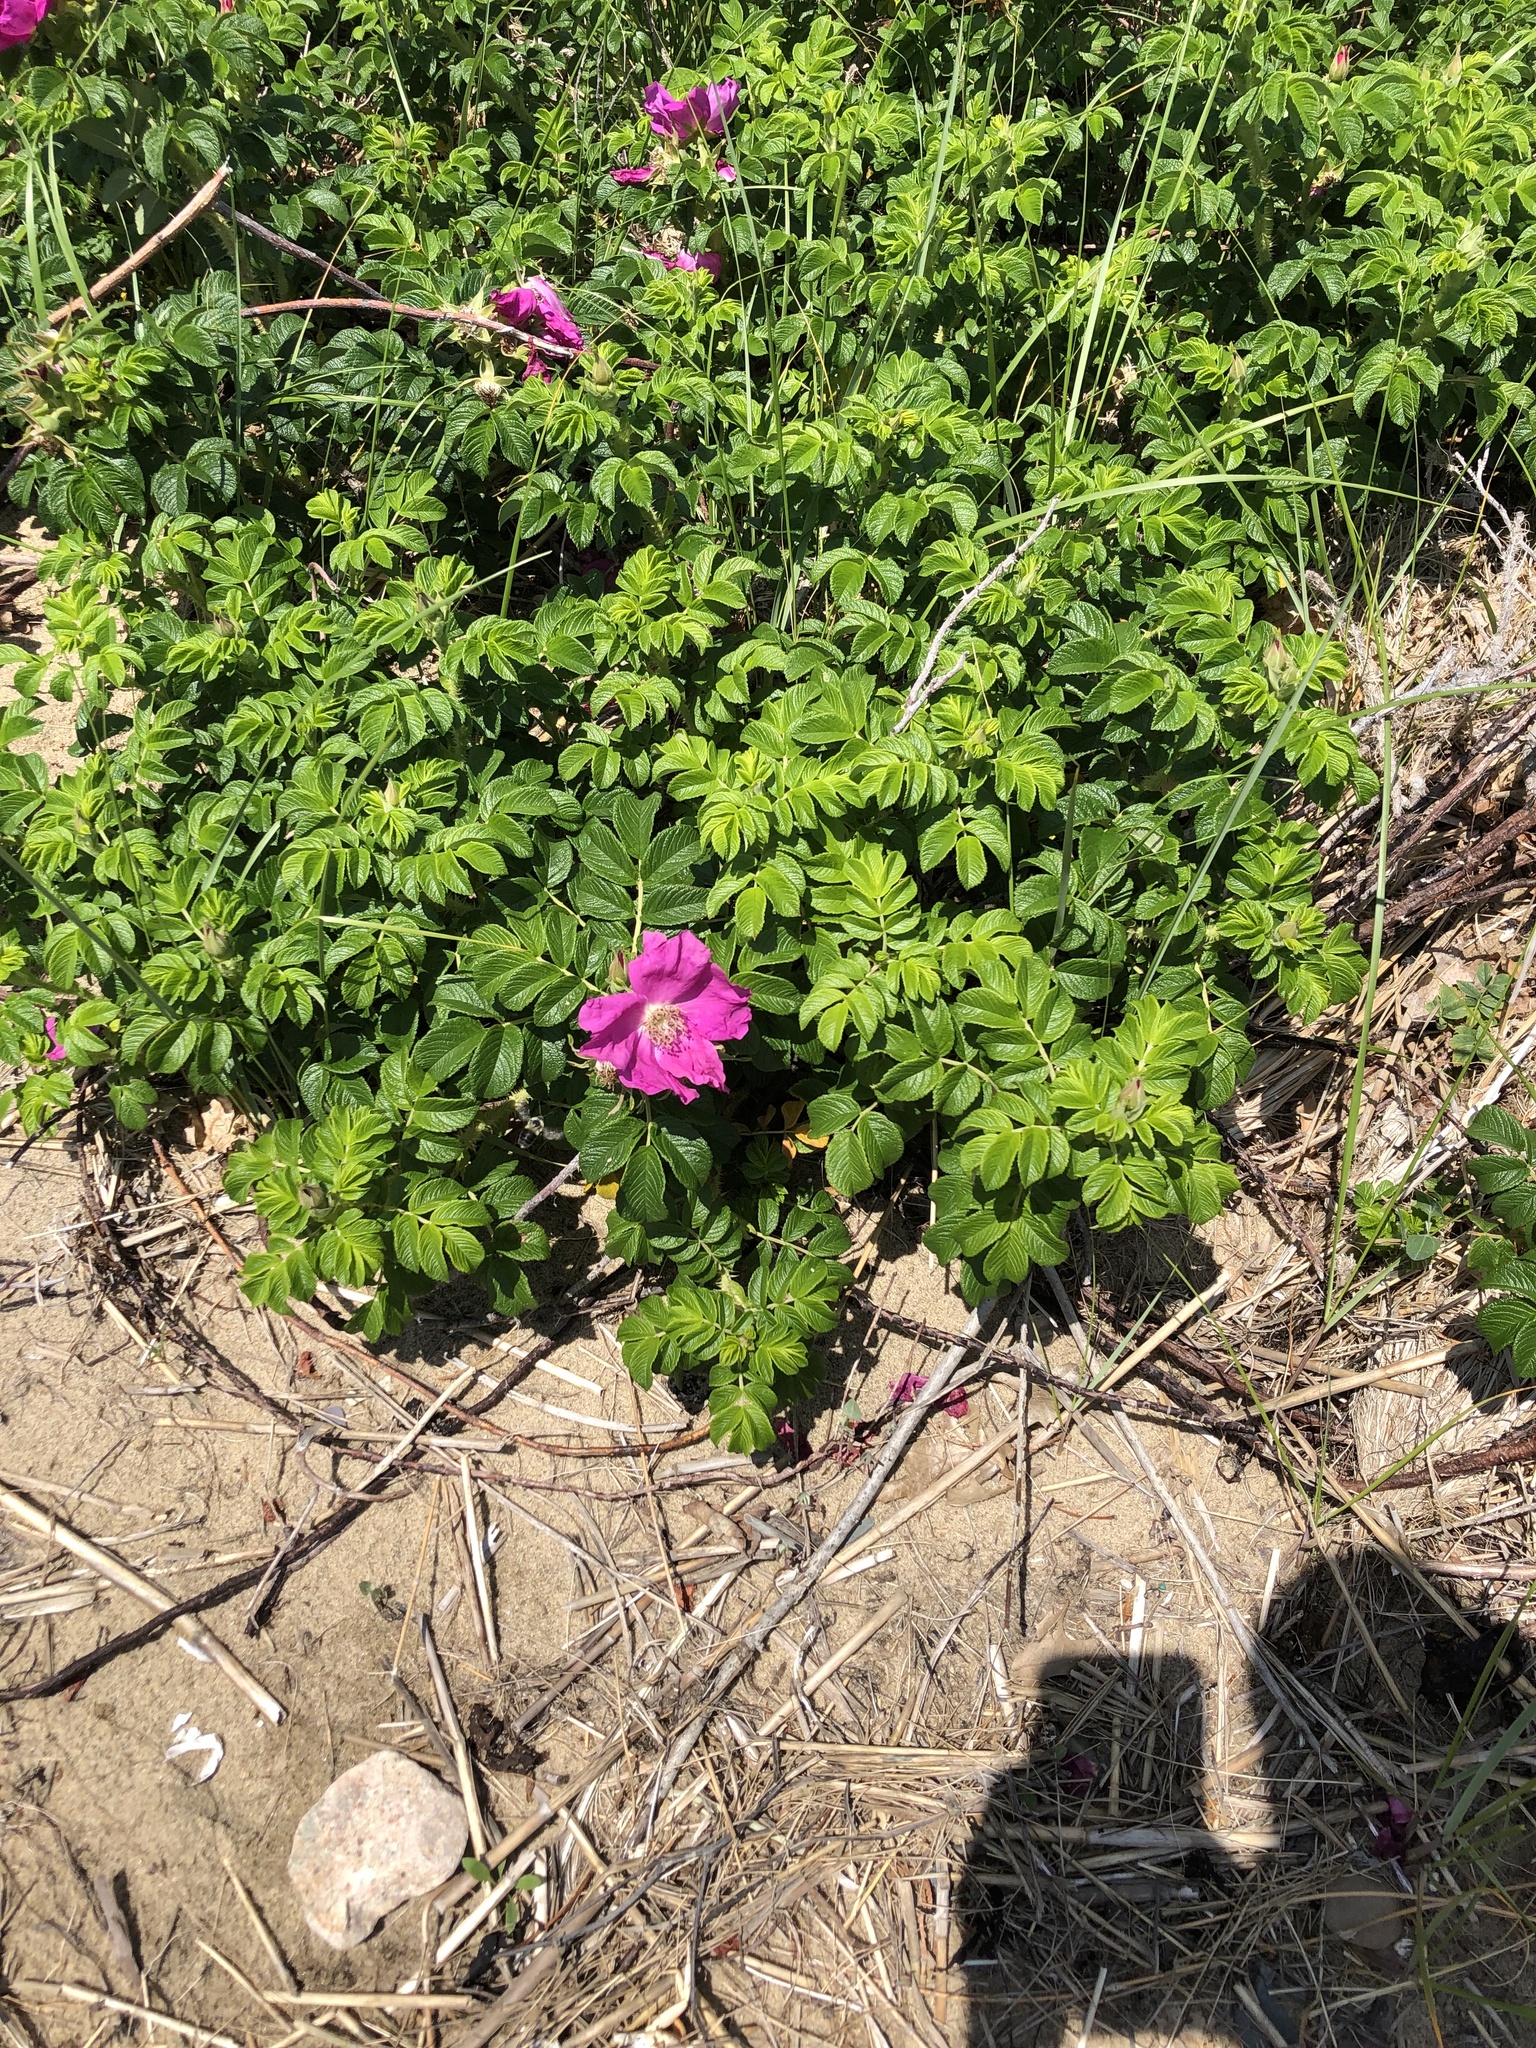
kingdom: Plantae
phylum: Tracheophyta
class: Magnoliopsida
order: Rosales
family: Rosaceae
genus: Rosa
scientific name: Rosa rugosa
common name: Japanese rose
